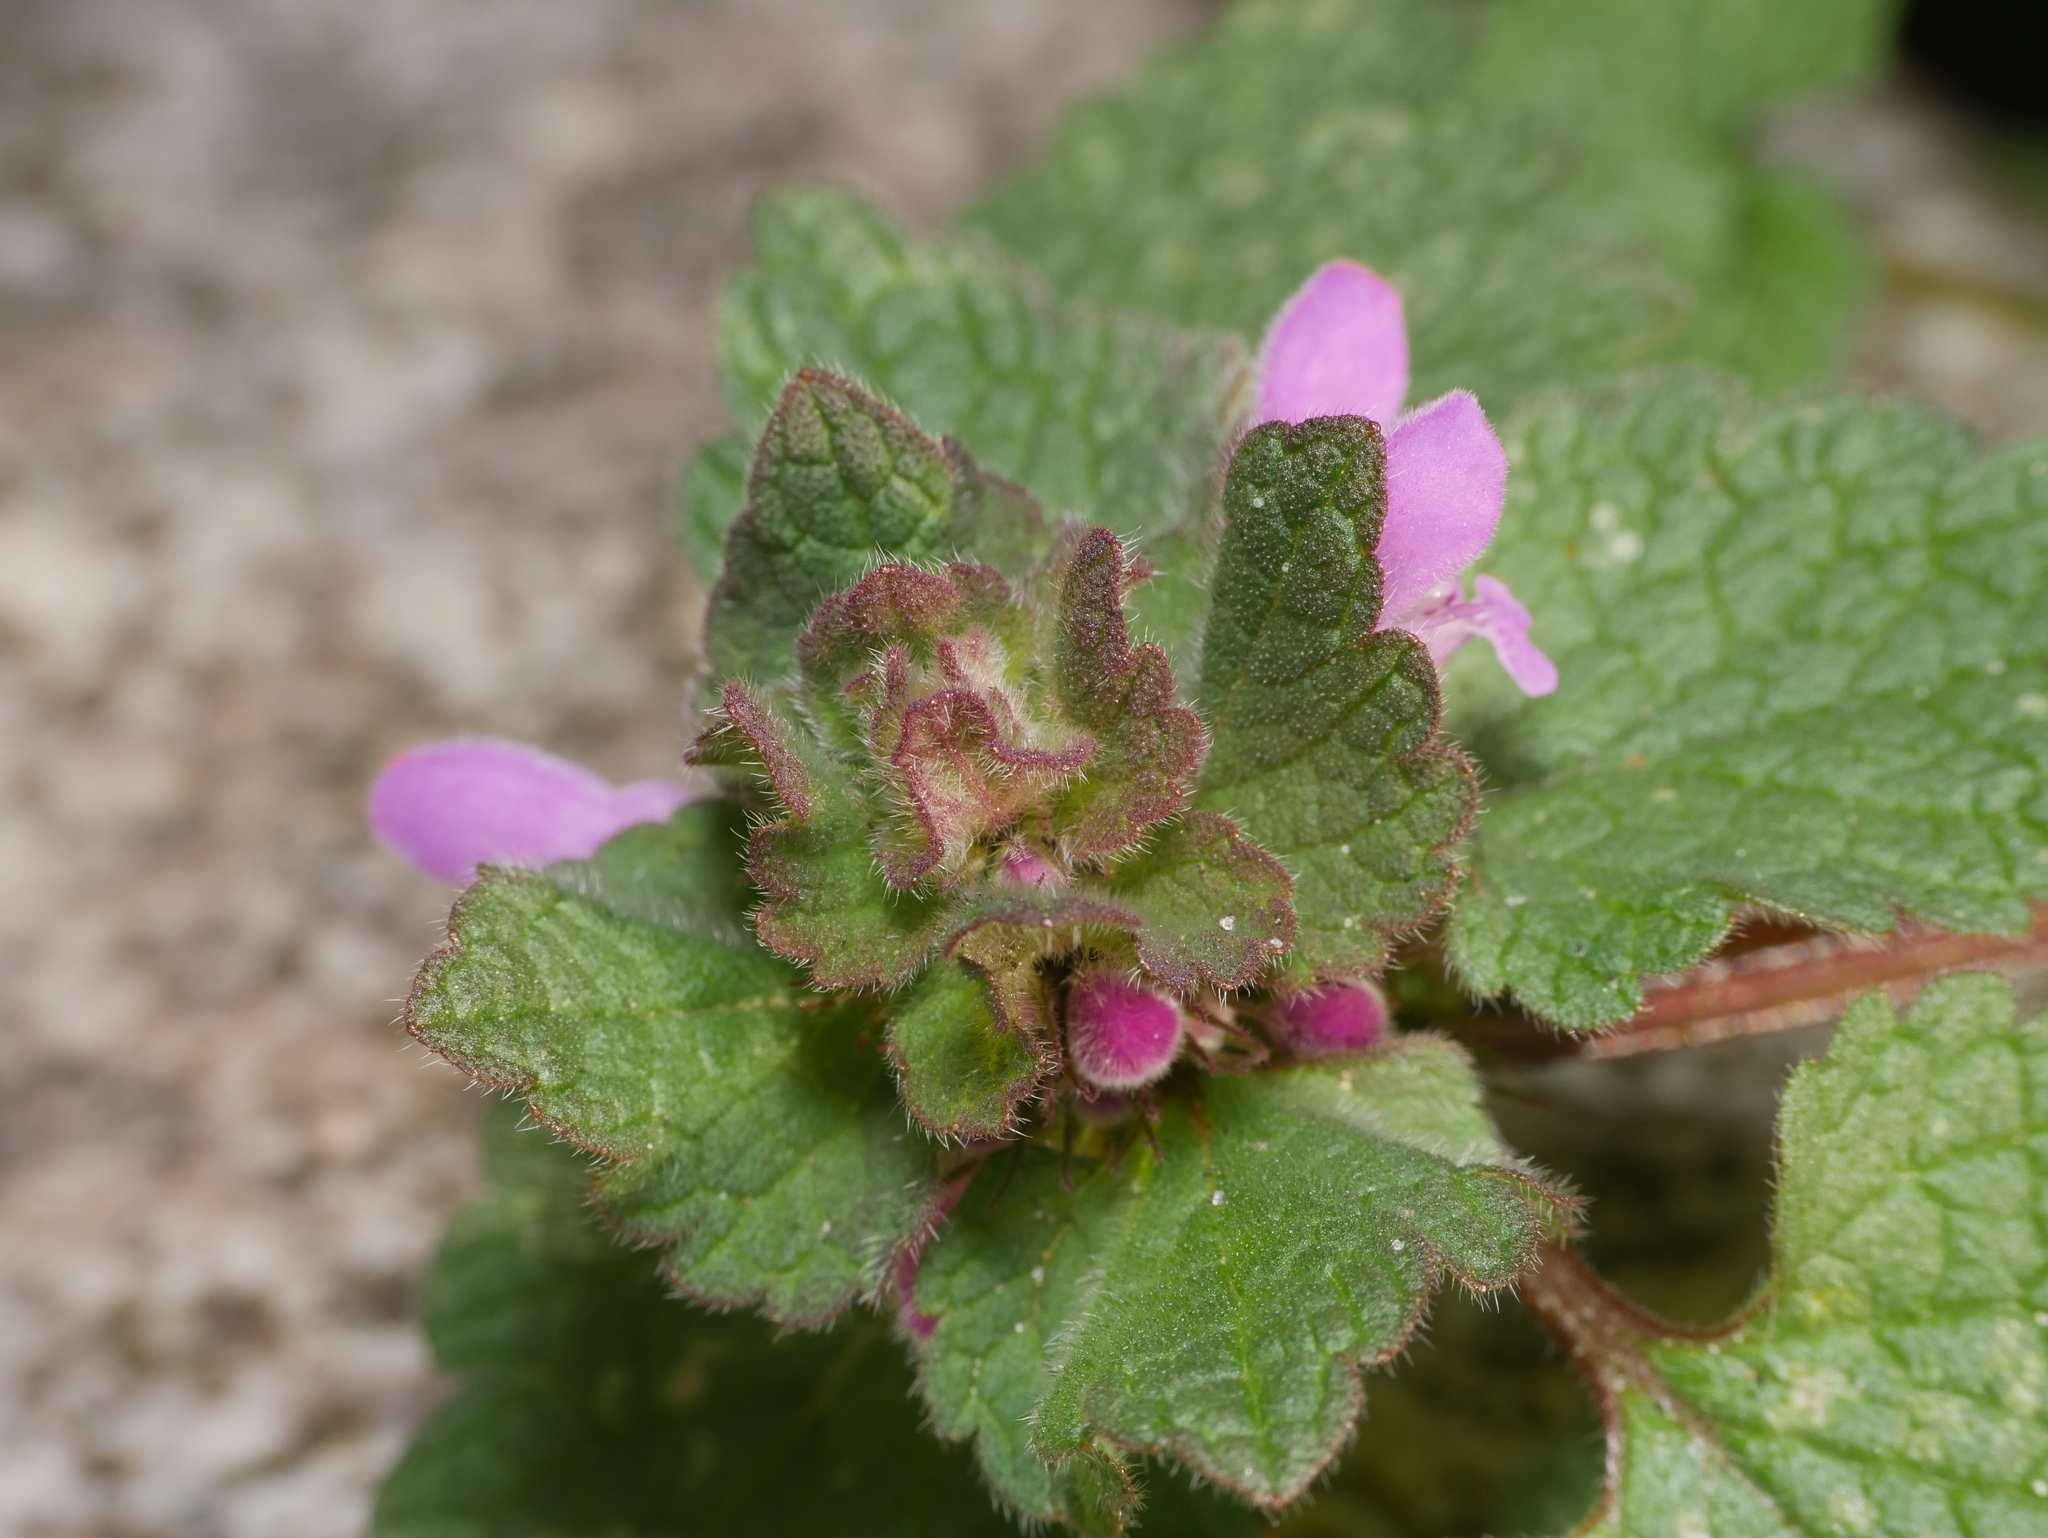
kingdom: Plantae
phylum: Tracheophyta
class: Magnoliopsida
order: Lamiales
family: Lamiaceae
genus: Lamium
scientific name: Lamium purpureum
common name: Red dead-nettle
